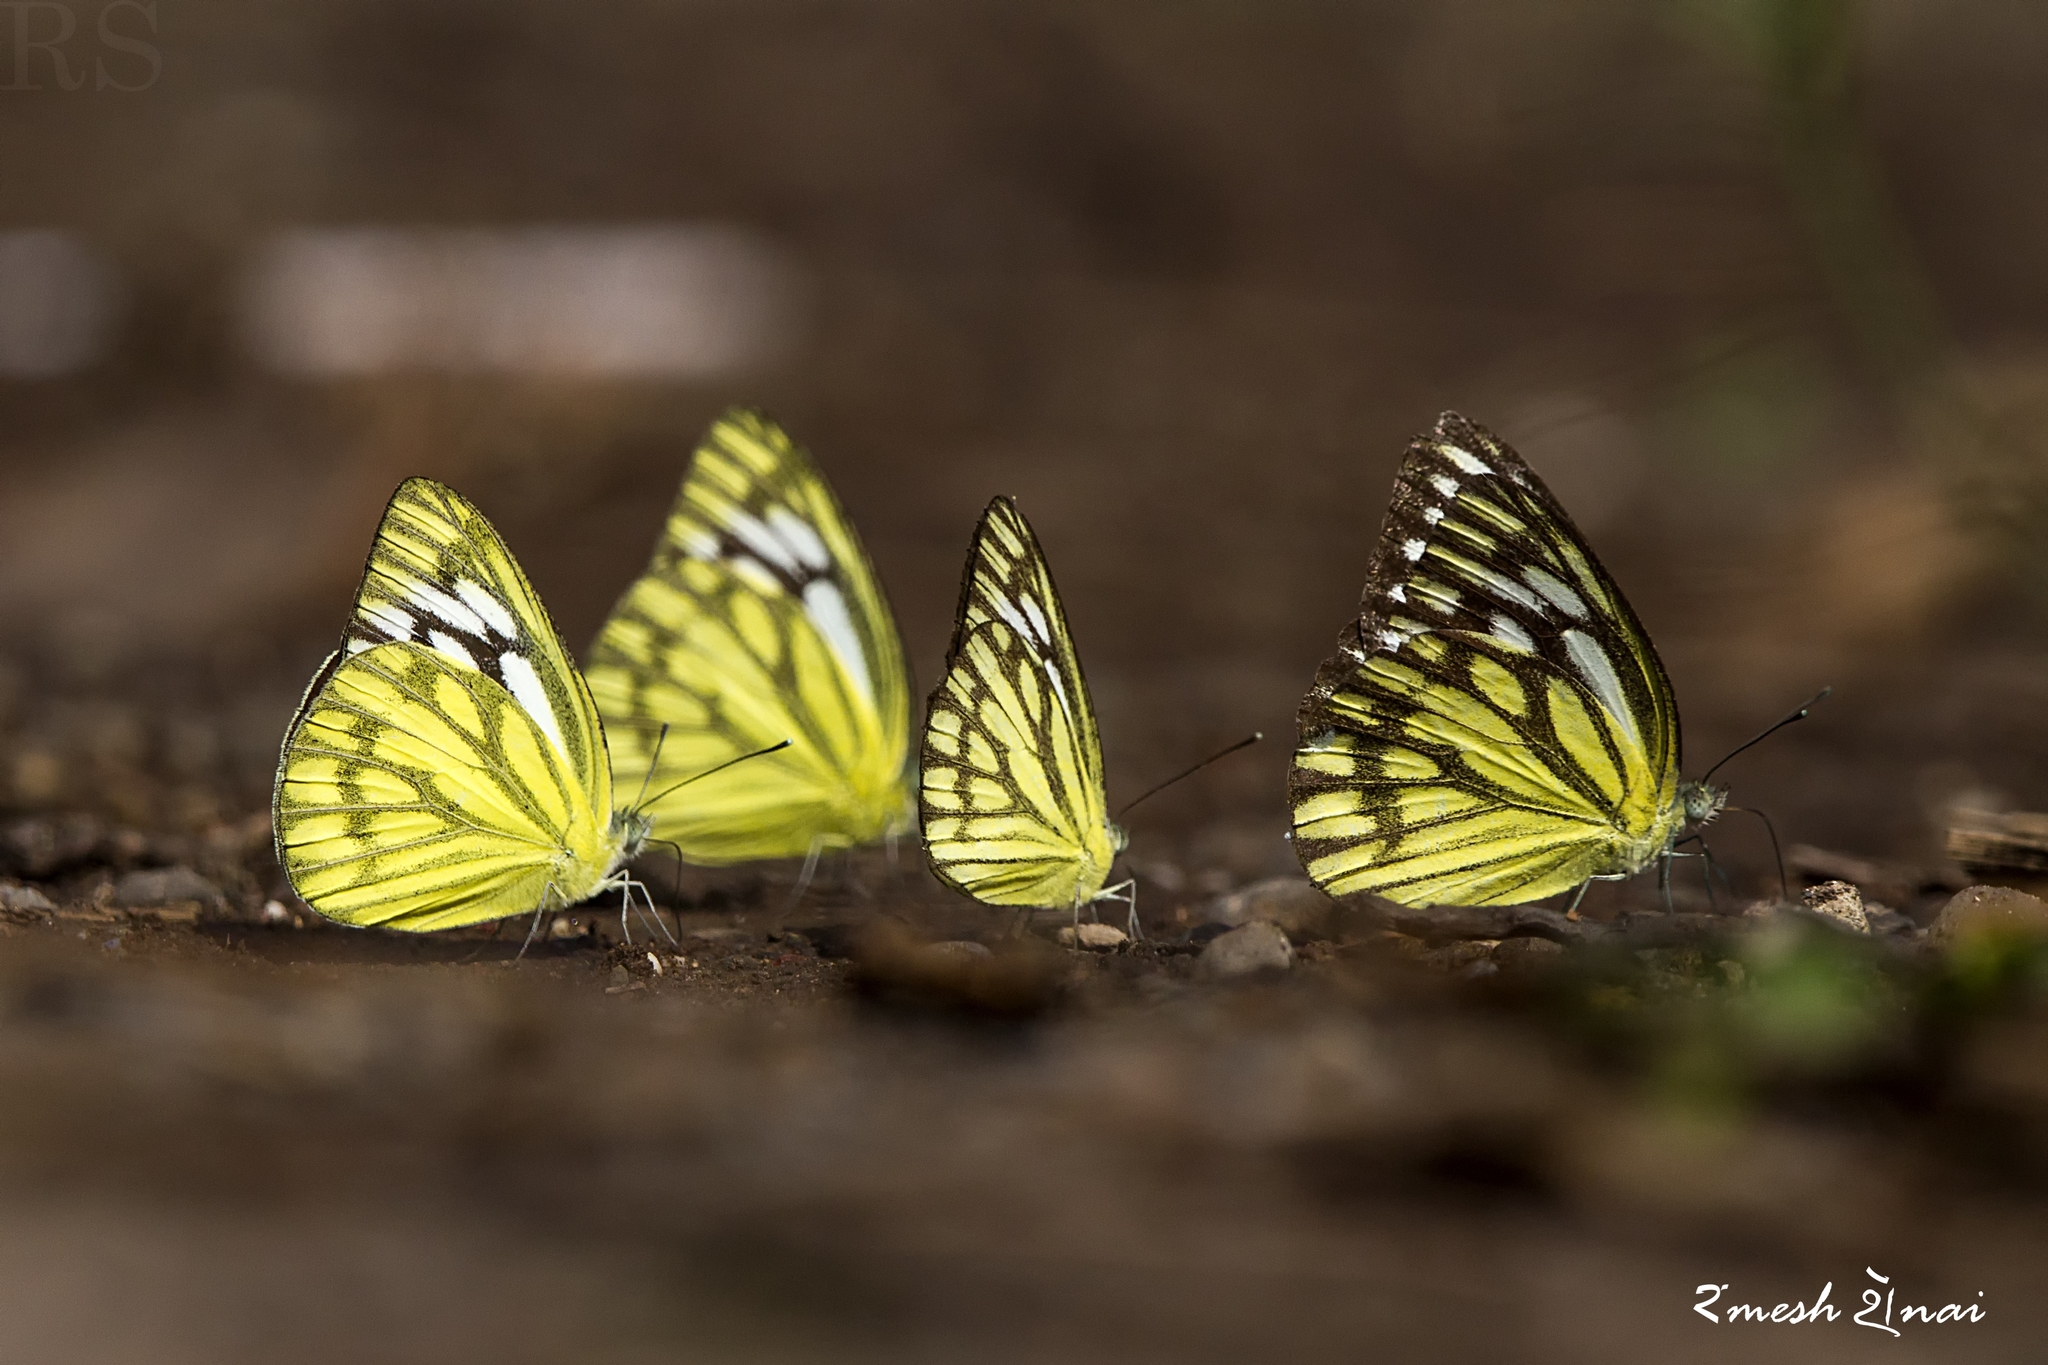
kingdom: Animalia
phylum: Arthropoda
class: Insecta
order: Lepidoptera
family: Pieridae
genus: Cepora
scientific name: Cepora nerissa
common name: Common gull
